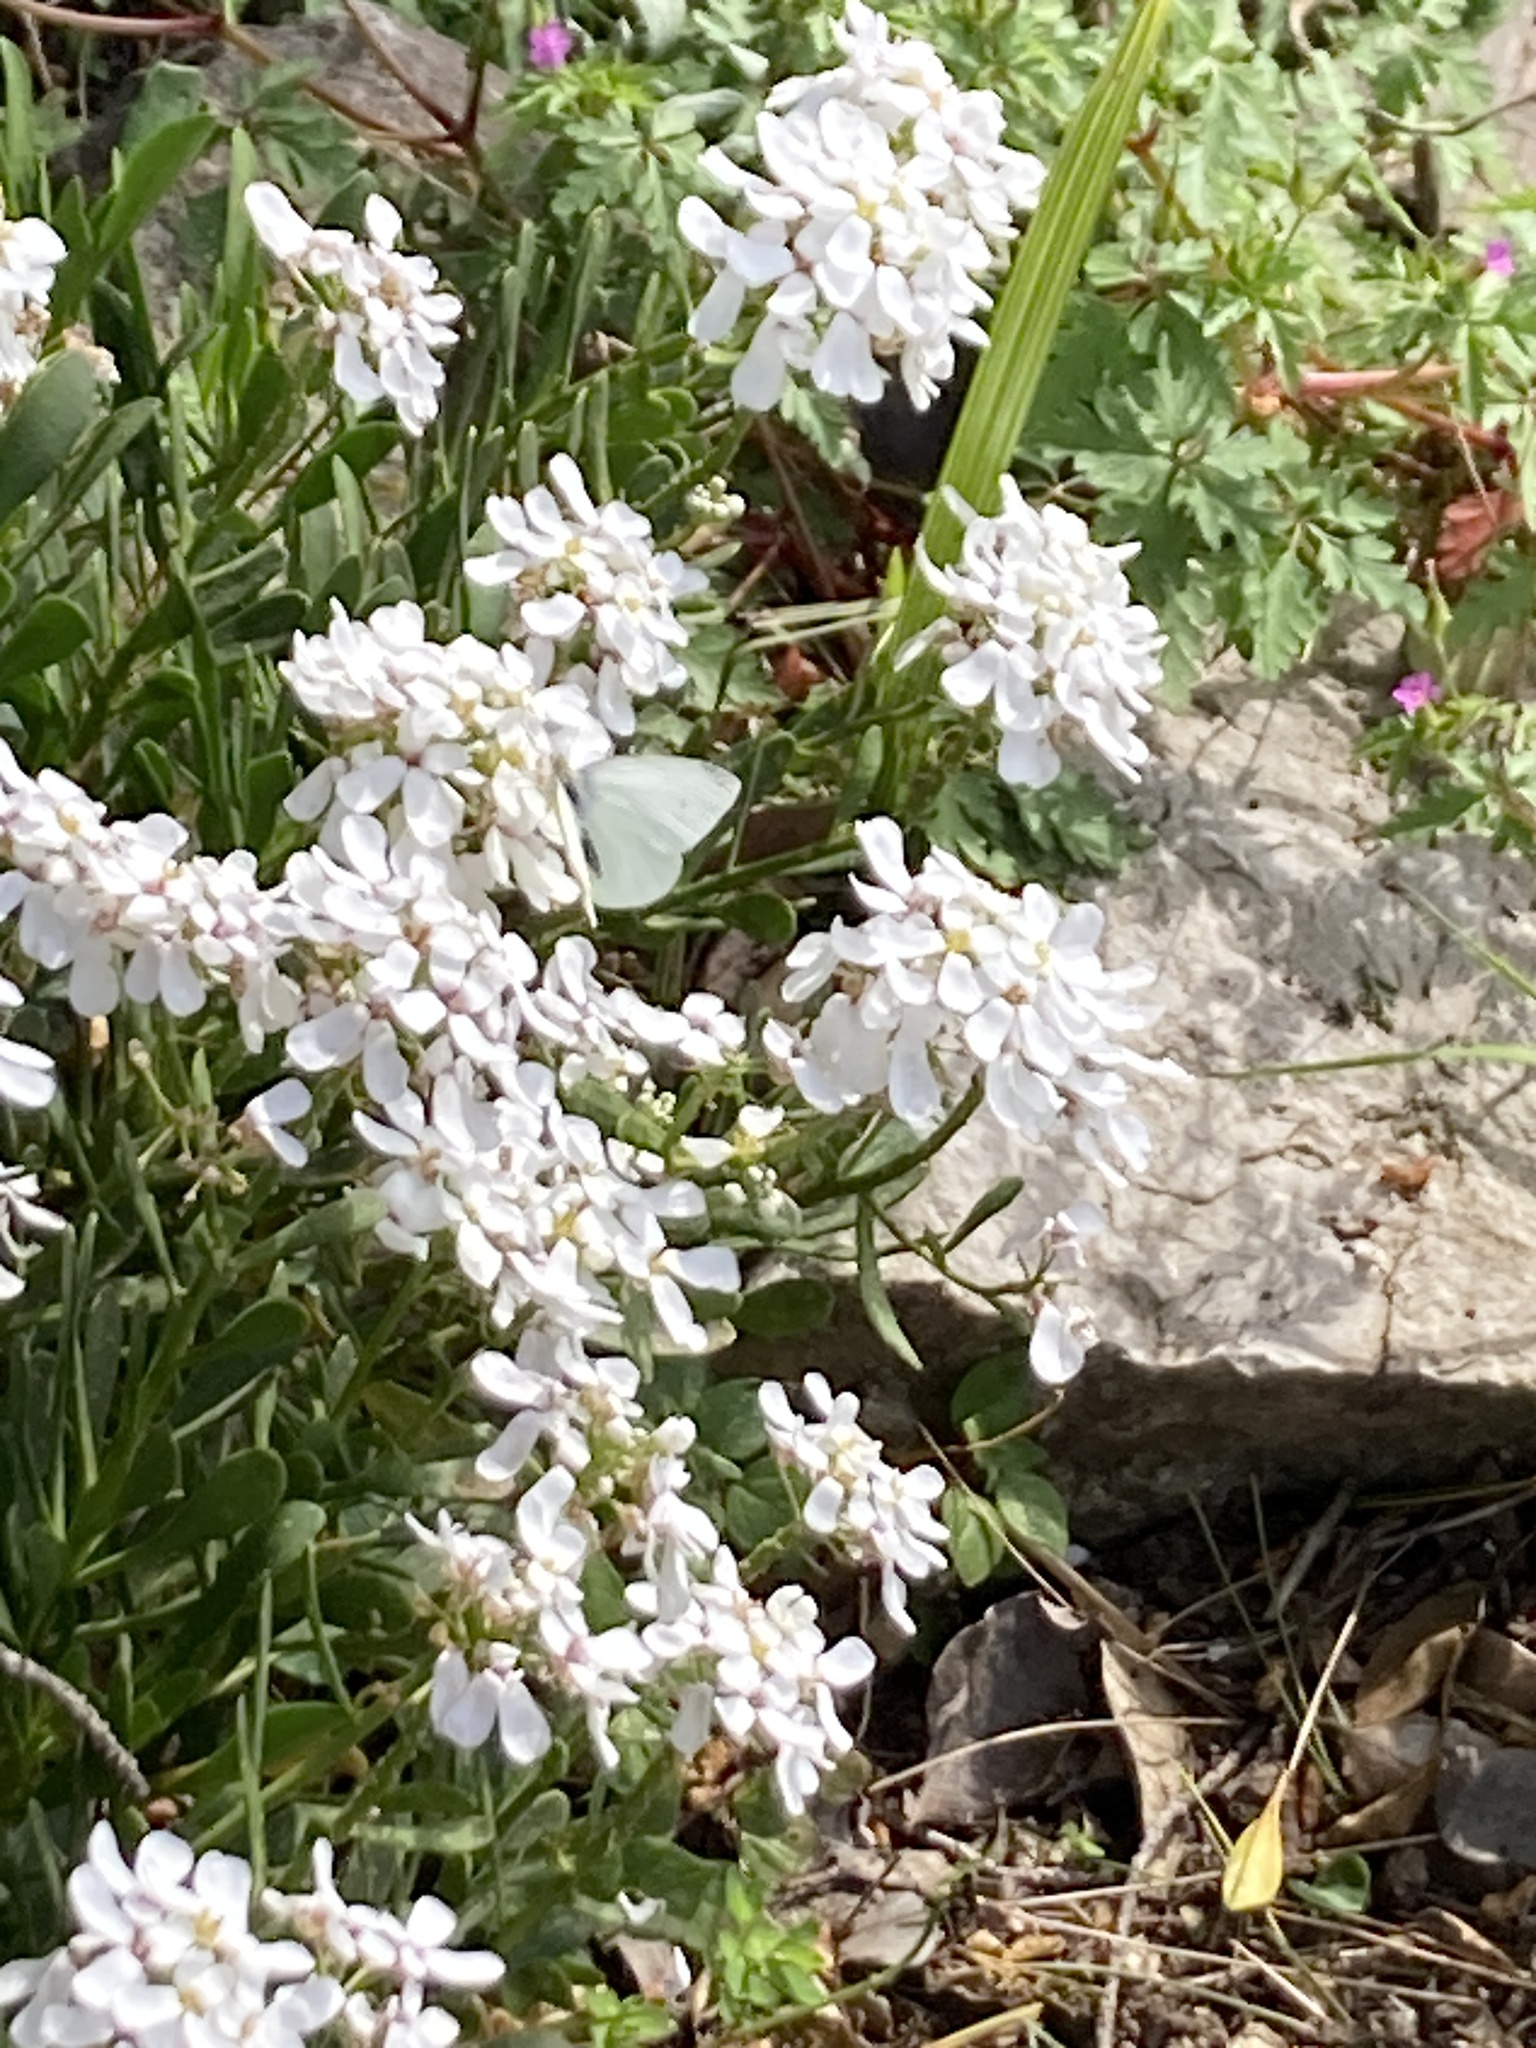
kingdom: Animalia
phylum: Arthropoda
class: Insecta
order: Lepidoptera
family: Pieridae
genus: Pieris
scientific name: Pieris rapae
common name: Small white
